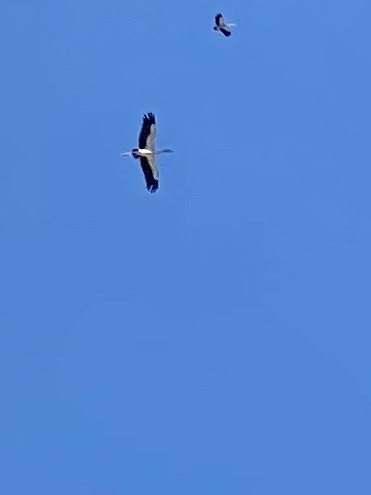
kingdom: Animalia
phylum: Chordata
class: Aves
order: Ciconiiformes
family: Ciconiidae
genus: Anastomus
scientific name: Anastomus oscitans
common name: Asian openbill
